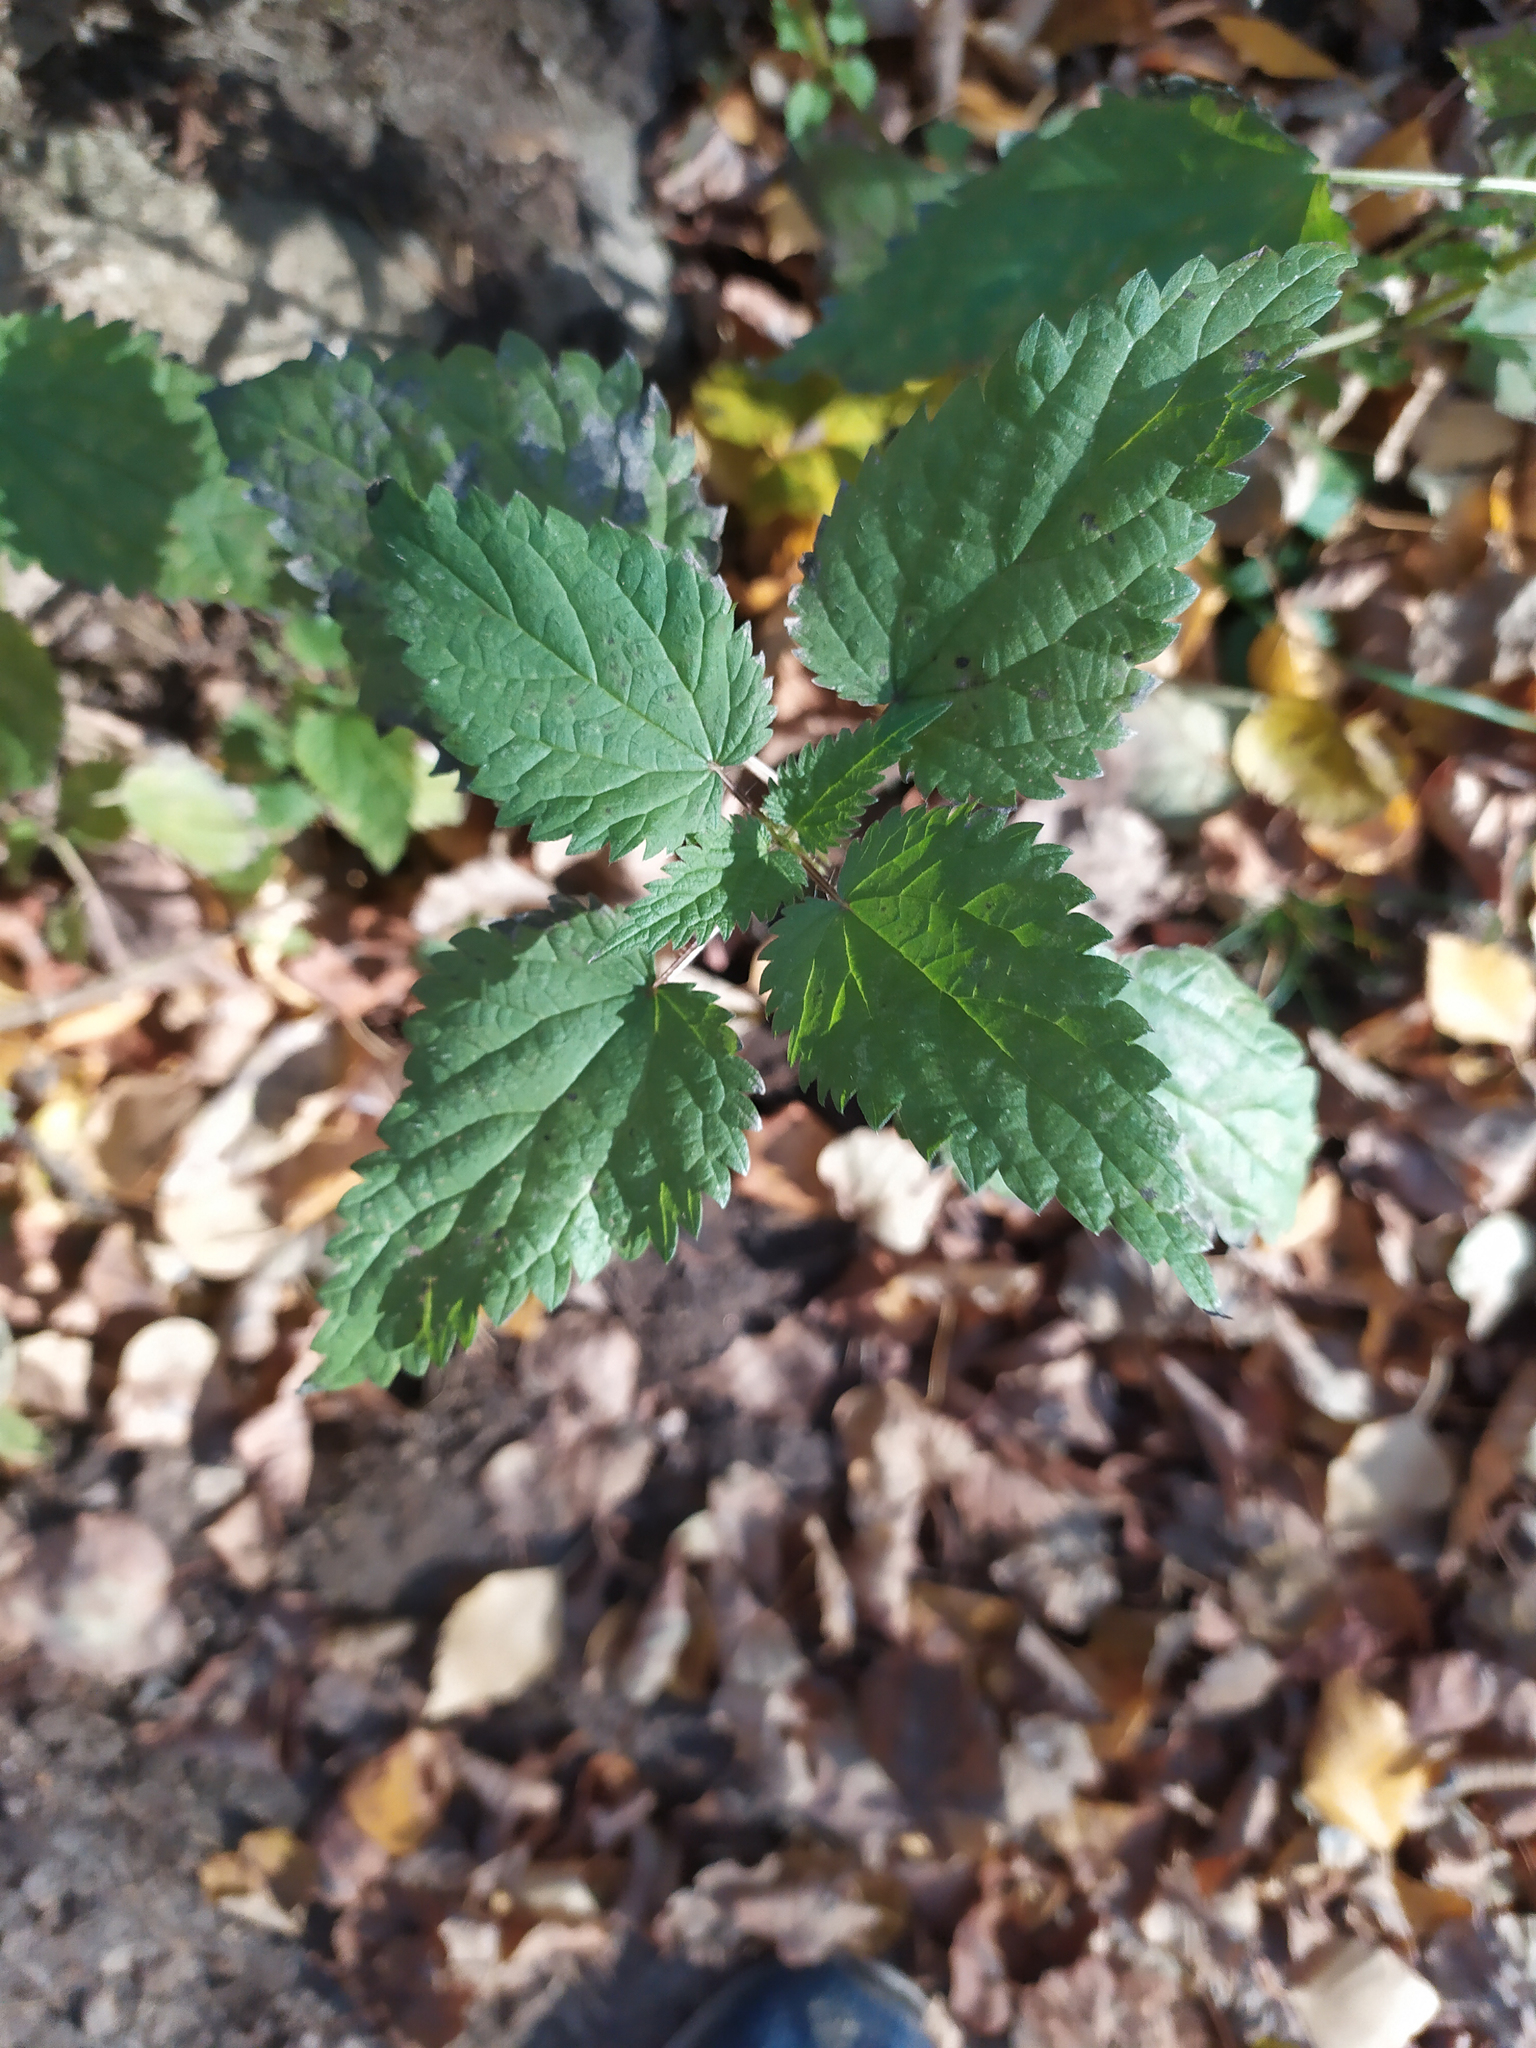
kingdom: Plantae
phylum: Tracheophyta
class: Magnoliopsida
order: Rosales
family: Urticaceae
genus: Urtica
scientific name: Urtica dioica
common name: Common nettle
